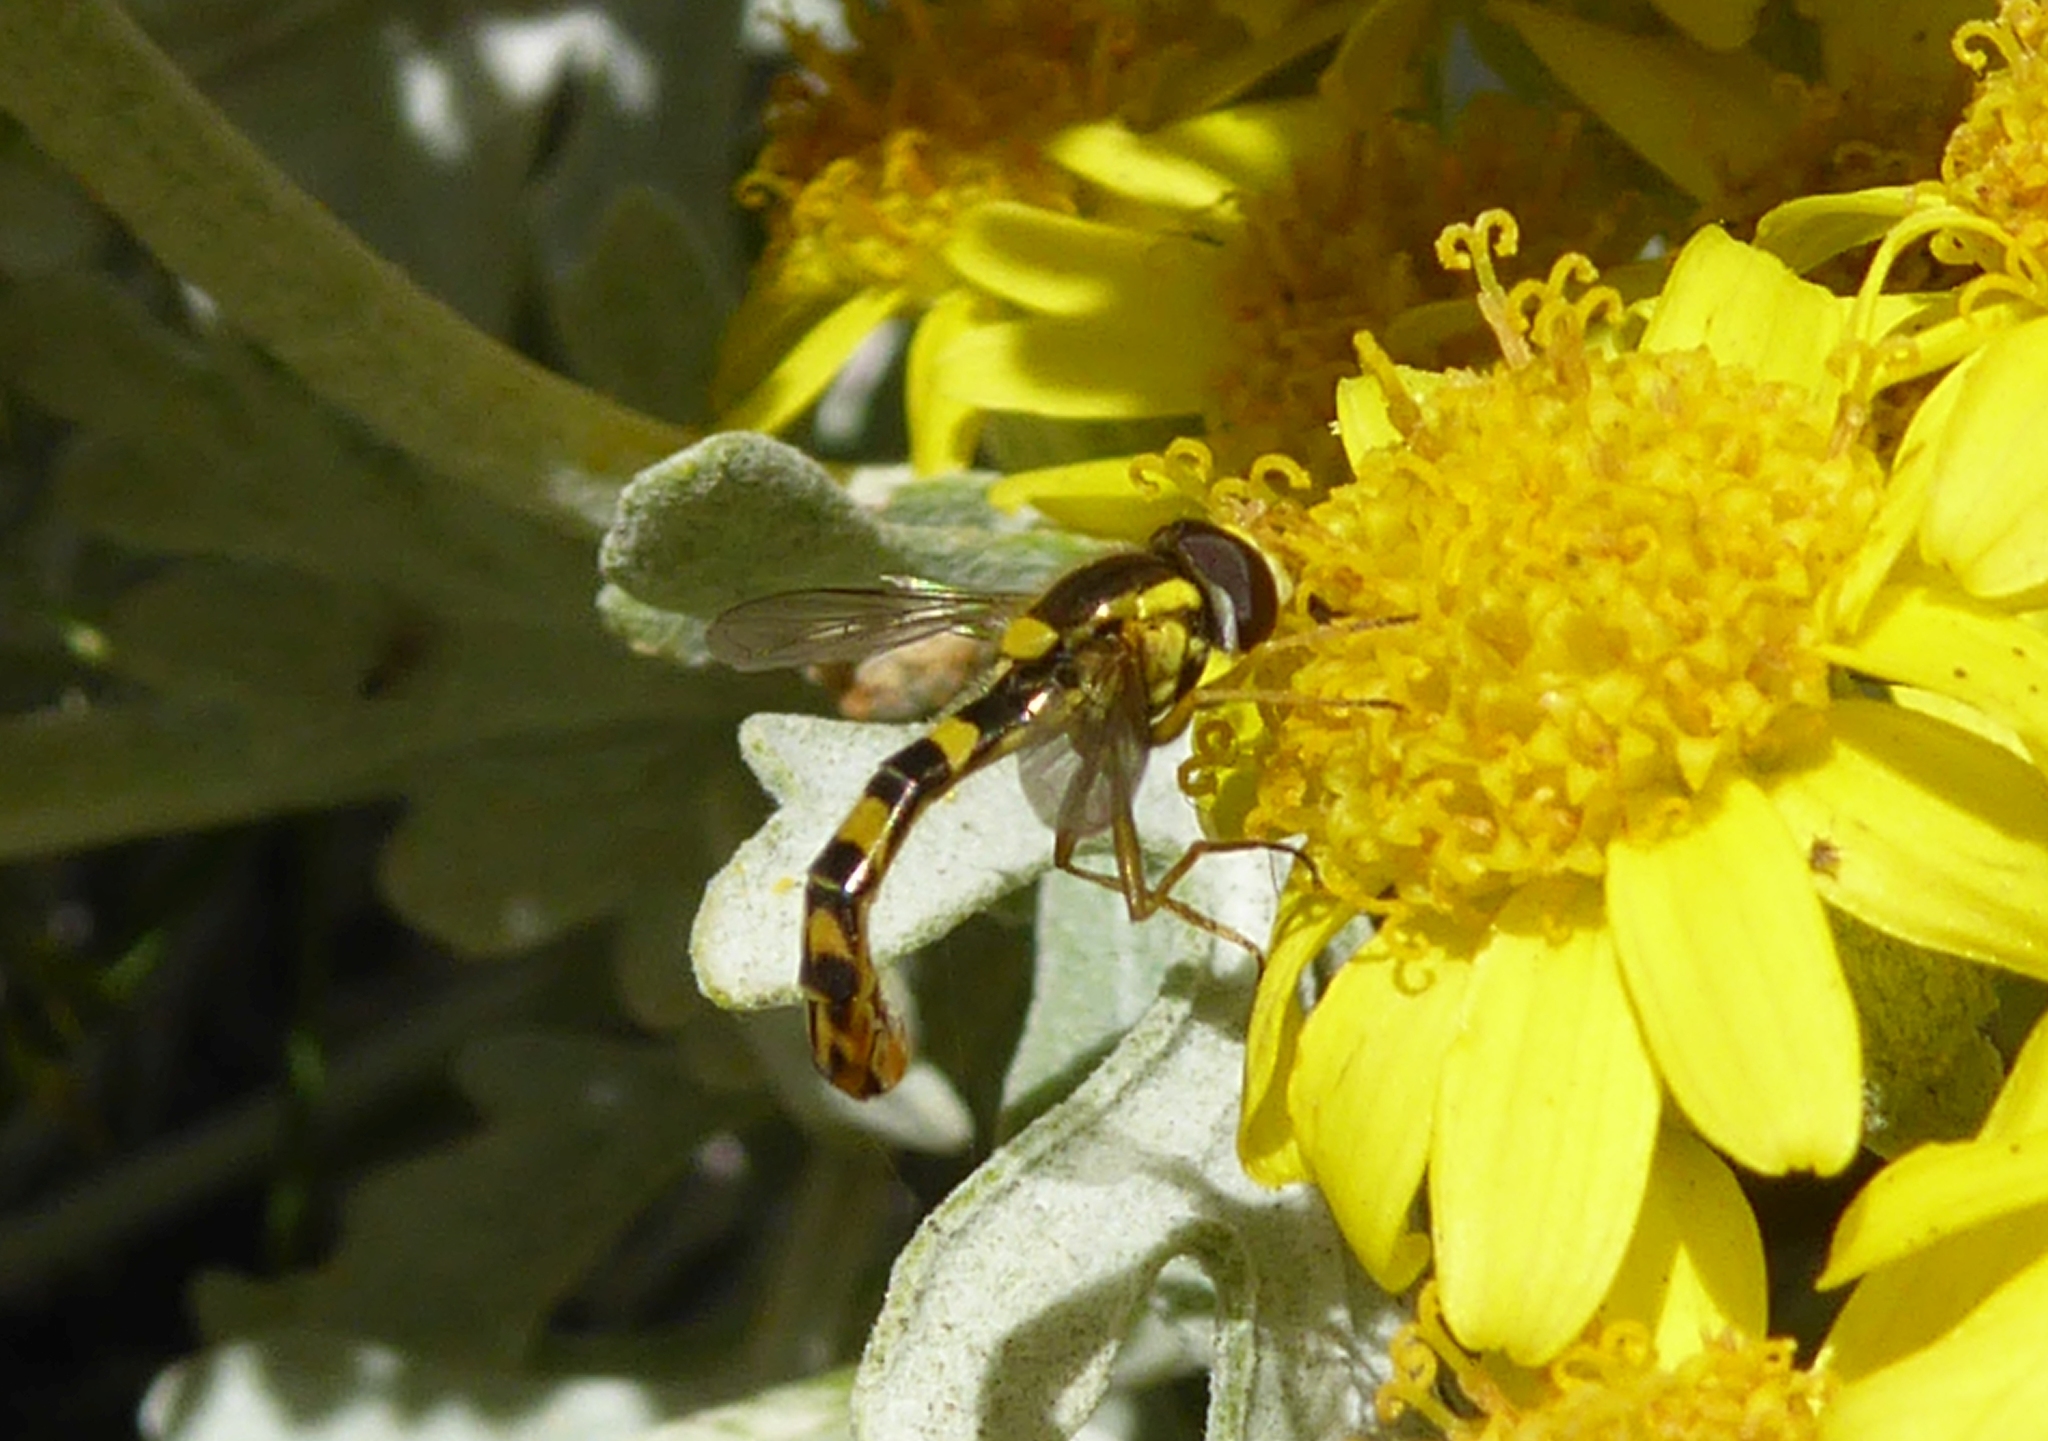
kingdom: Animalia
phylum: Arthropoda
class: Insecta
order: Diptera
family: Syrphidae
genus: Sphaerophoria
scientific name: Sphaerophoria scripta
